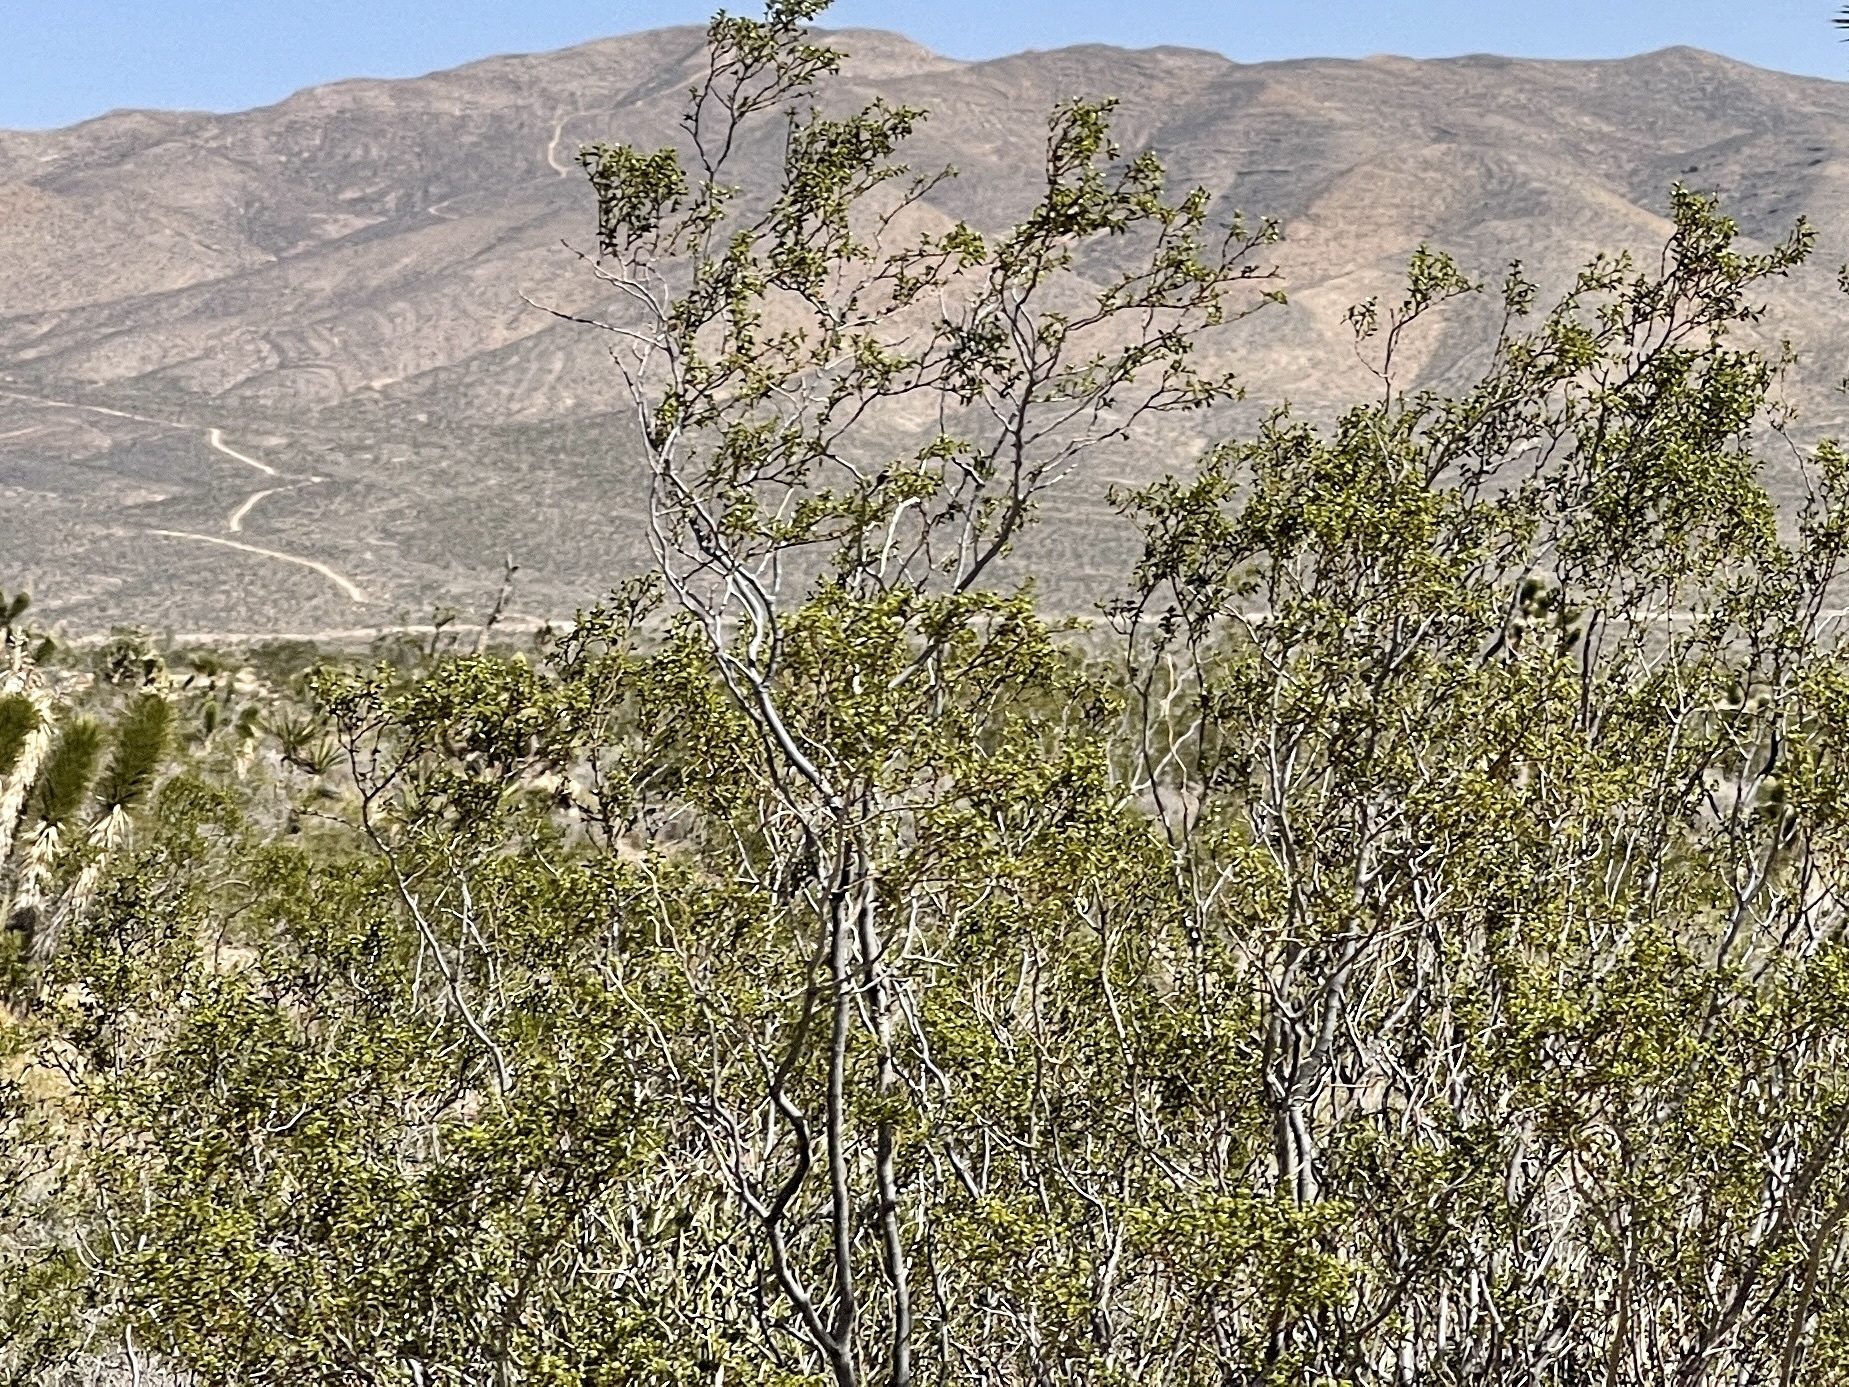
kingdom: Plantae
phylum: Tracheophyta
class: Magnoliopsida
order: Zygophyllales
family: Zygophyllaceae
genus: Larrea
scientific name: Larrea tridentata
